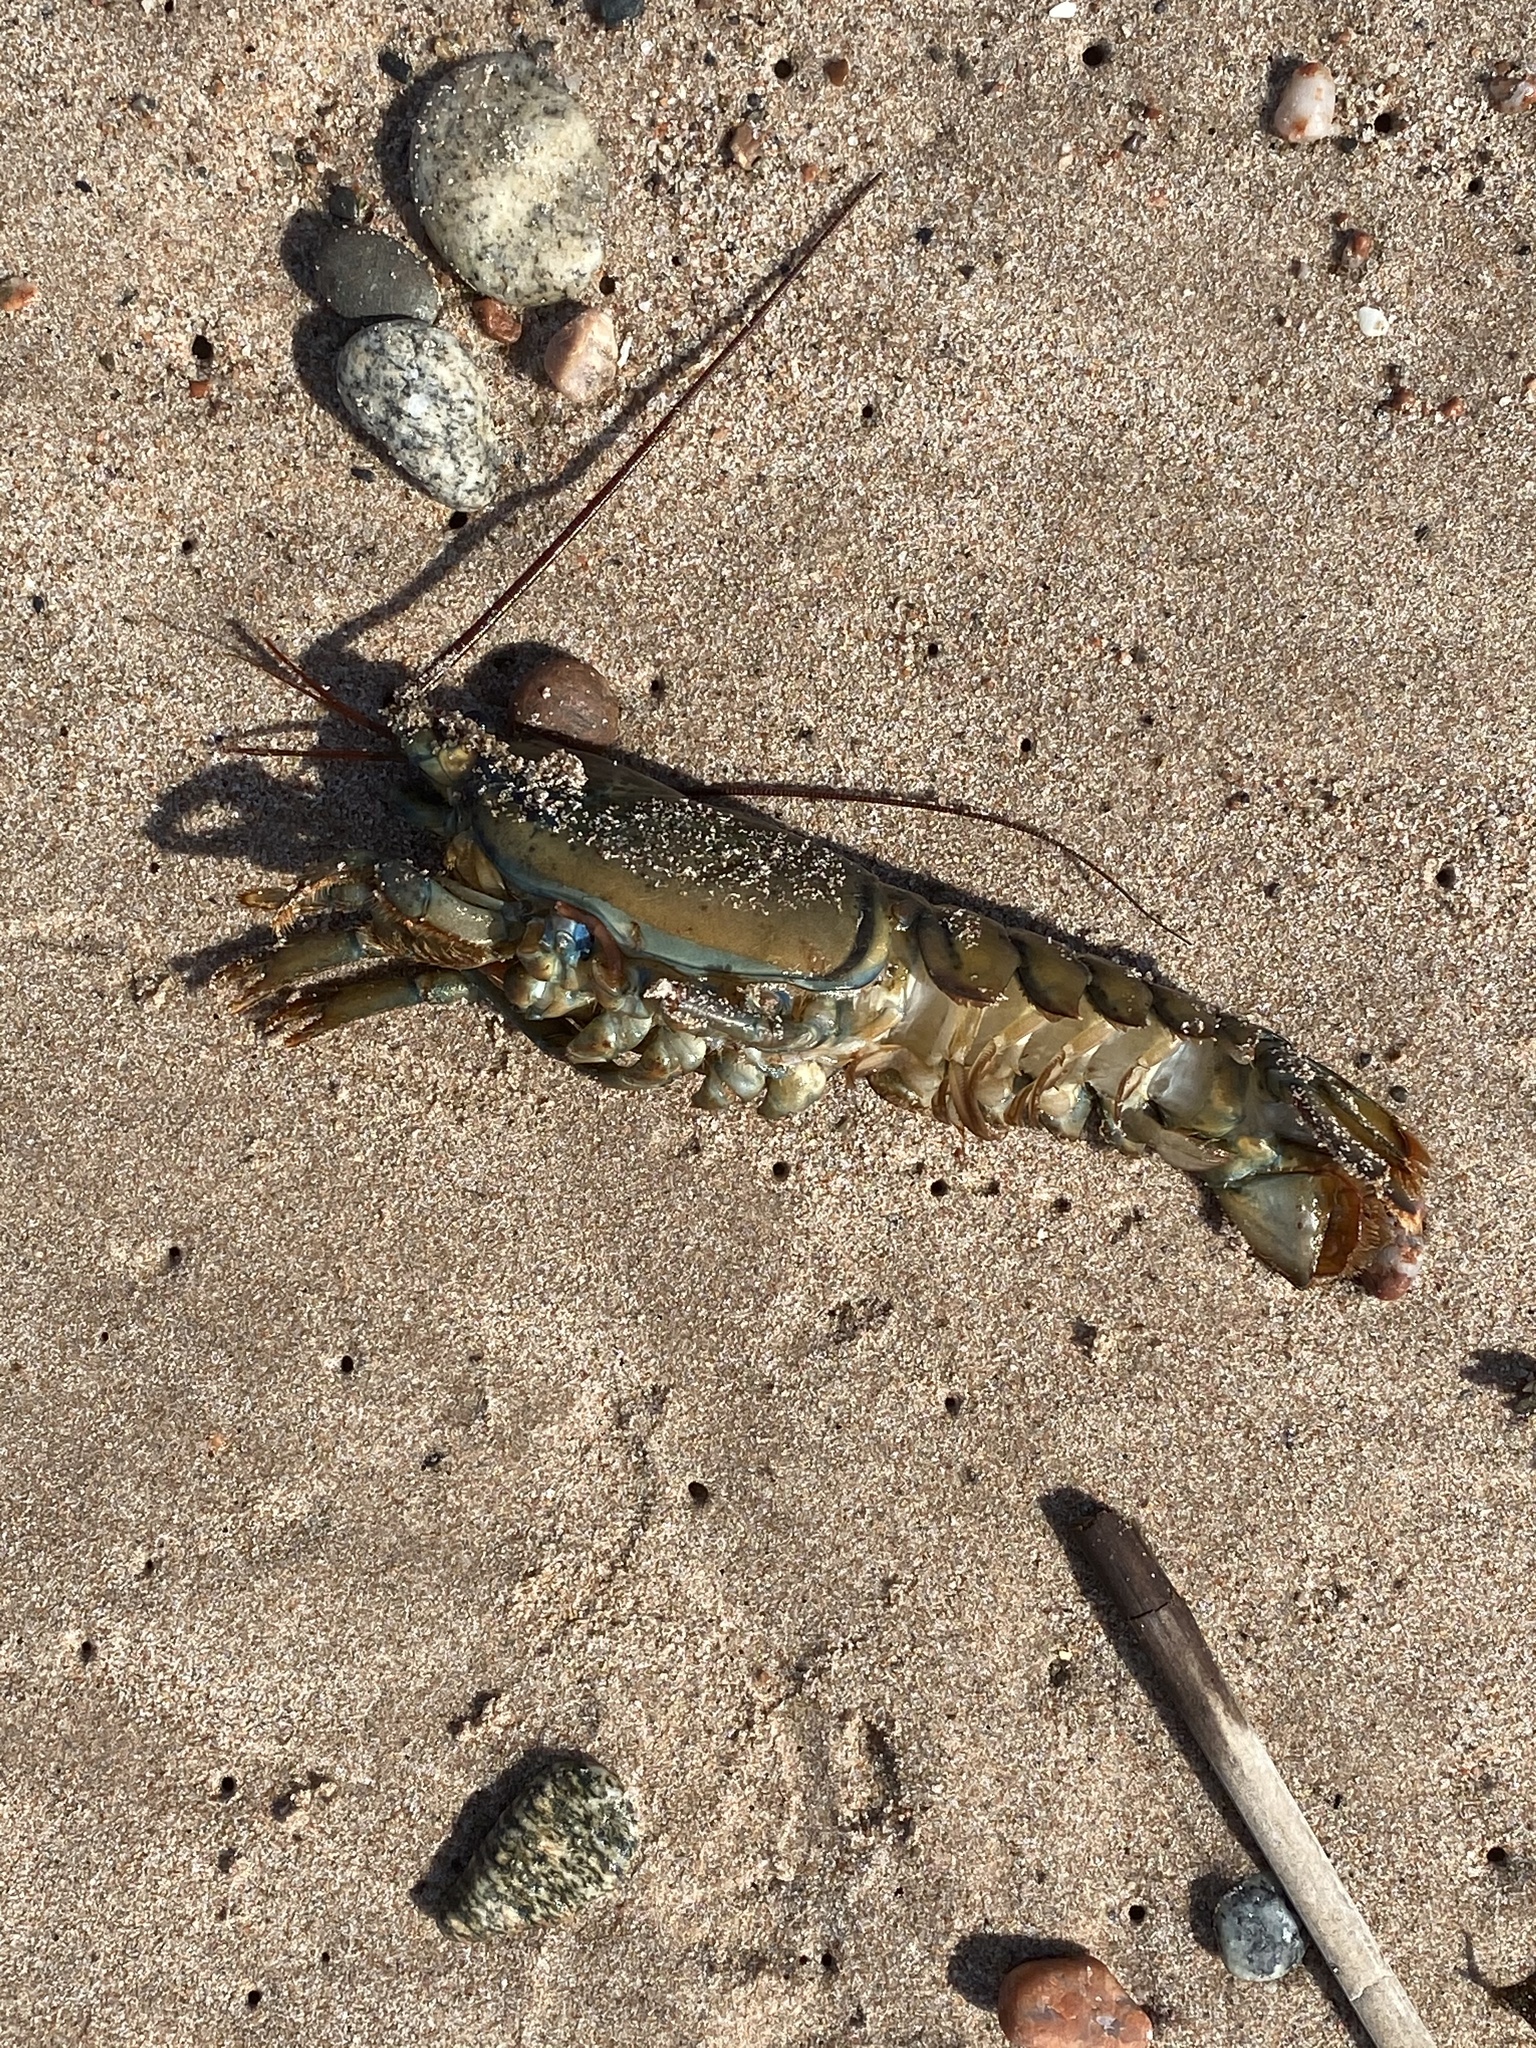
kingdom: Animalia
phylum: Arthropoda
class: Malacostraca
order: Decapoda
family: Nephropidae
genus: Homarus
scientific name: Homarus americanus
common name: American lobster
